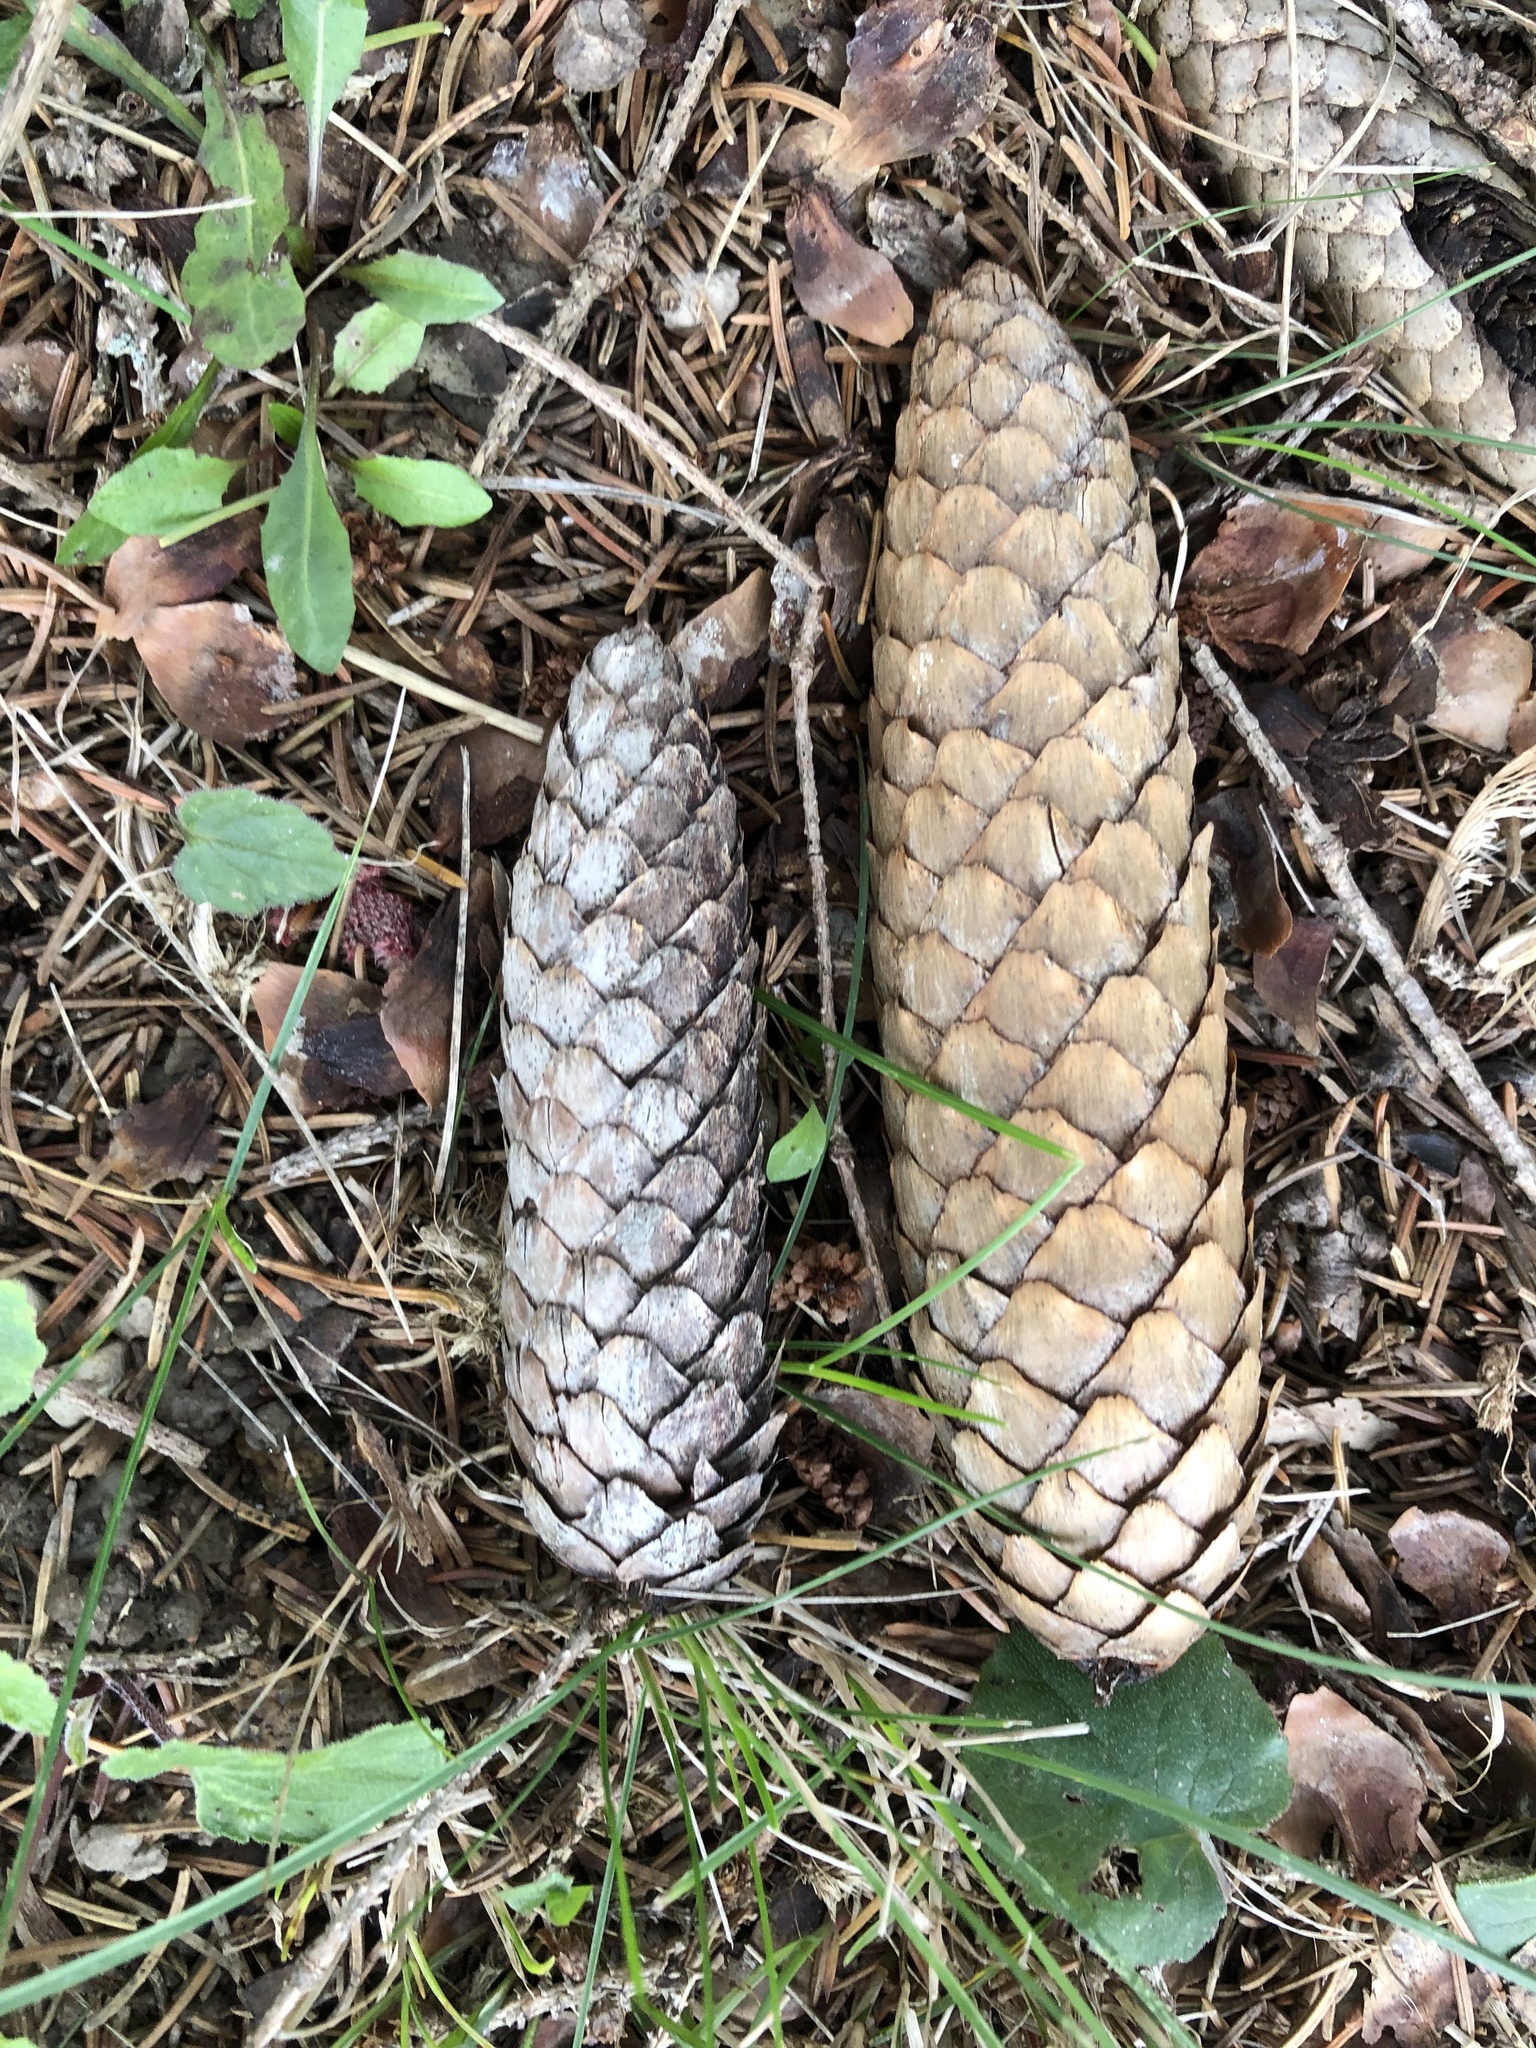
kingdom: Plantae
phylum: Tracheophyta
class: Pinopsida
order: Pinales
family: Pinaceae
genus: Picea
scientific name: Picea abies
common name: Norway spruce
